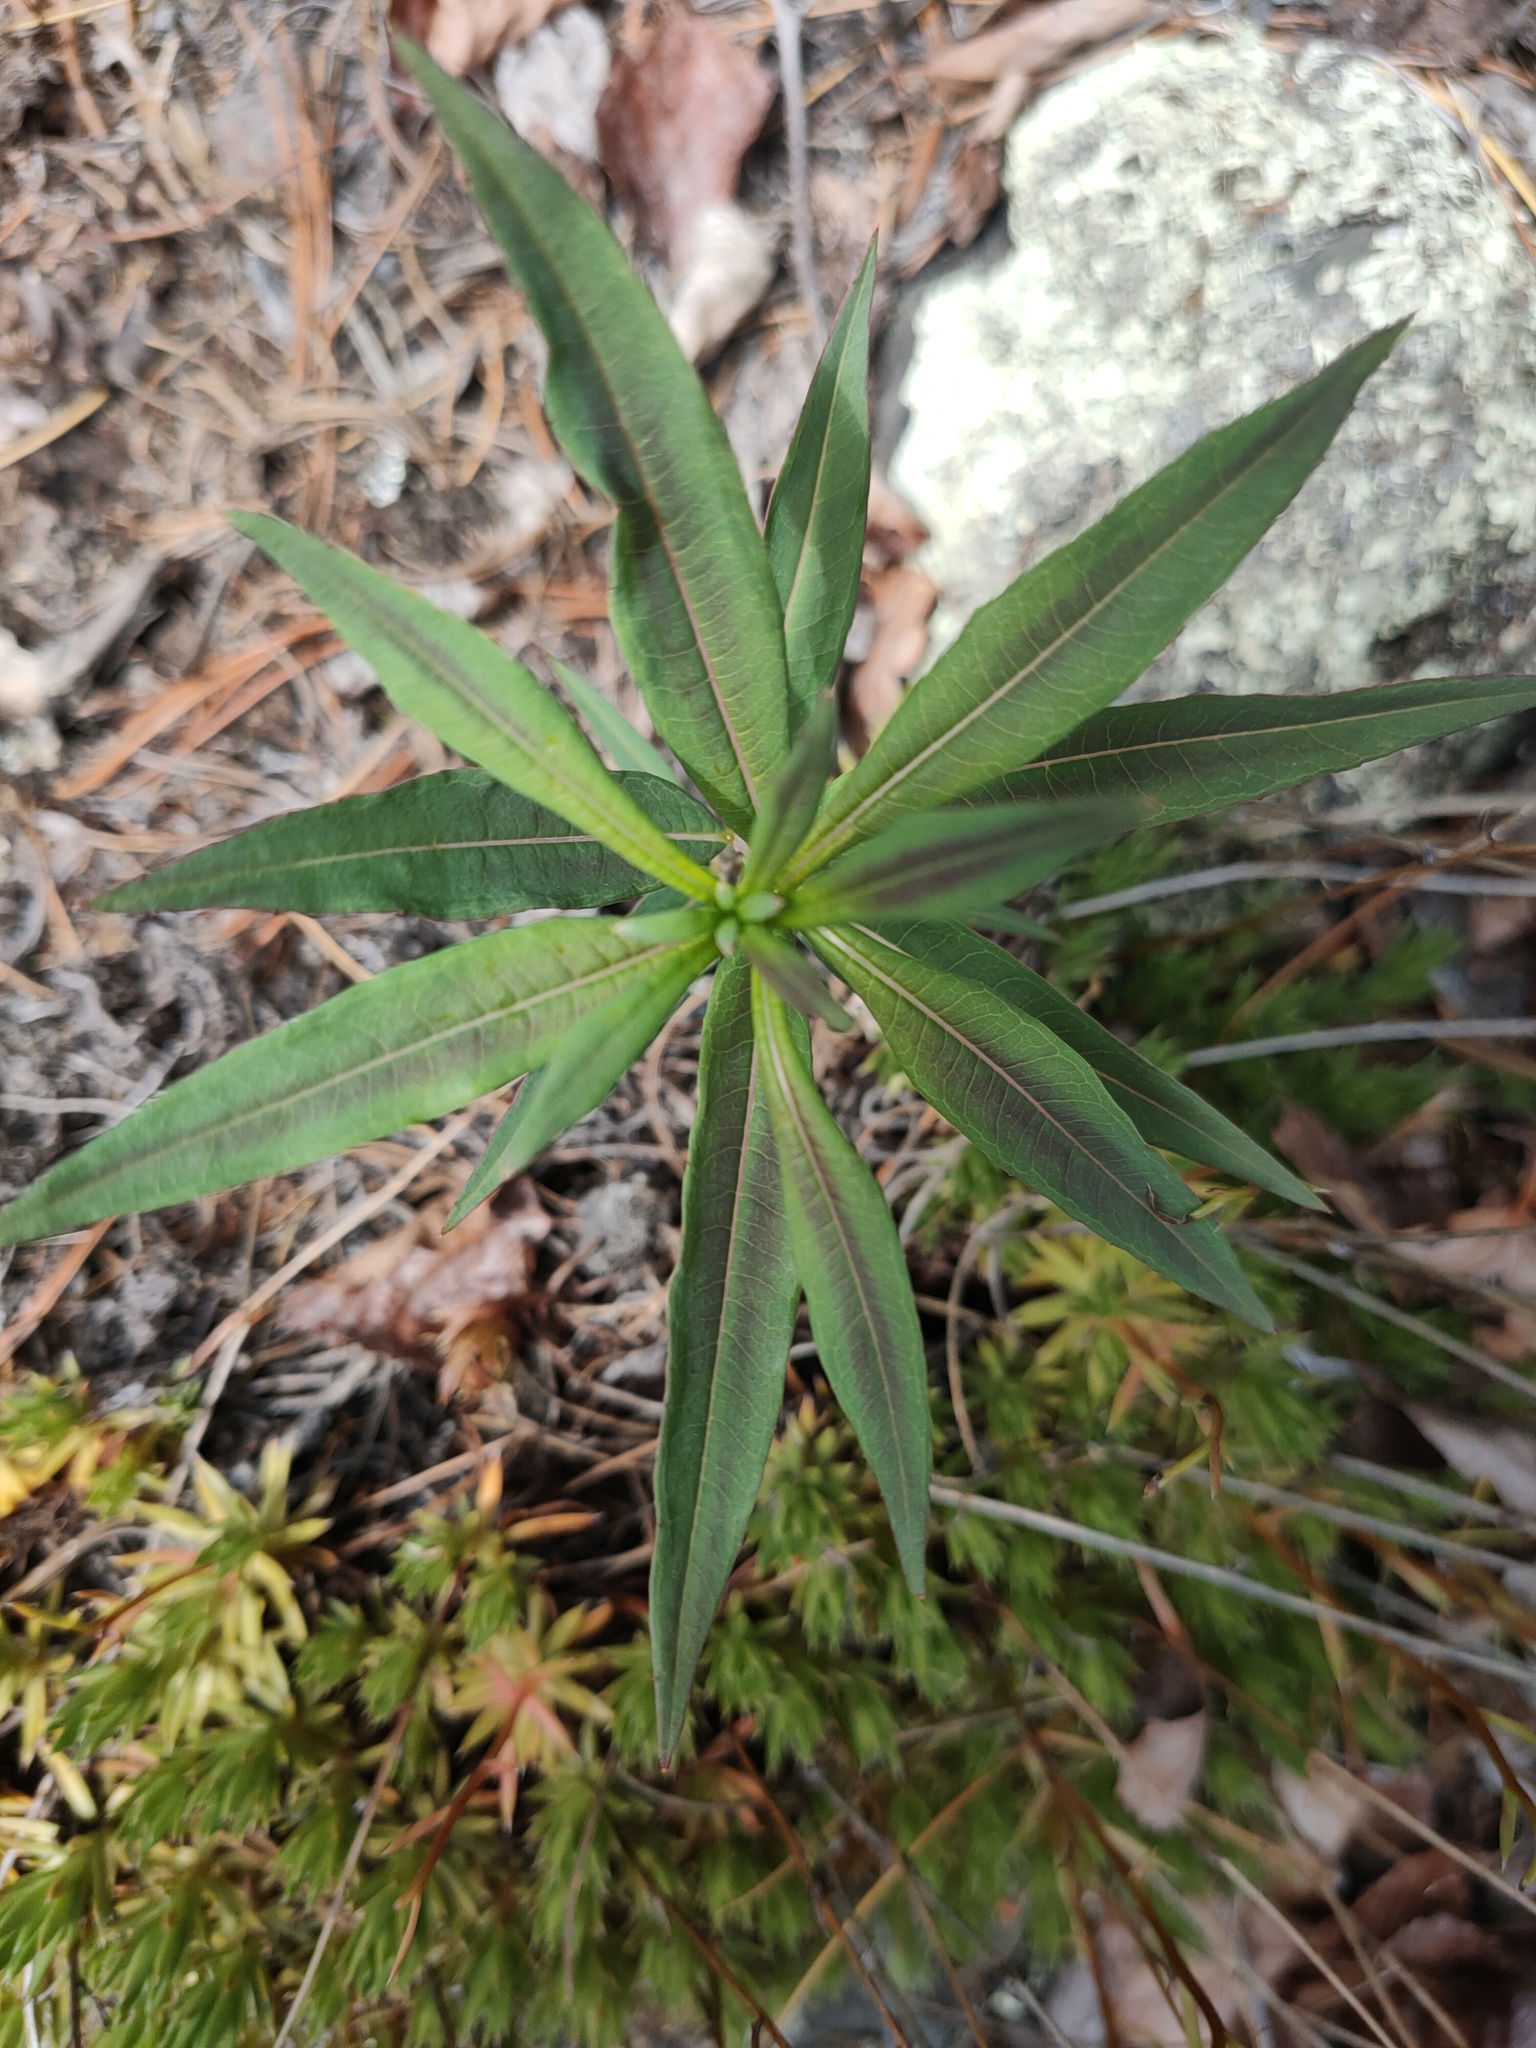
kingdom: Plantae
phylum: Tracheophyta
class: Magnoliopsida
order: Myrtales
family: Onagraceae
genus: Chamaenerion
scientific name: Chamaenerion angustifolium
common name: Fireweed
